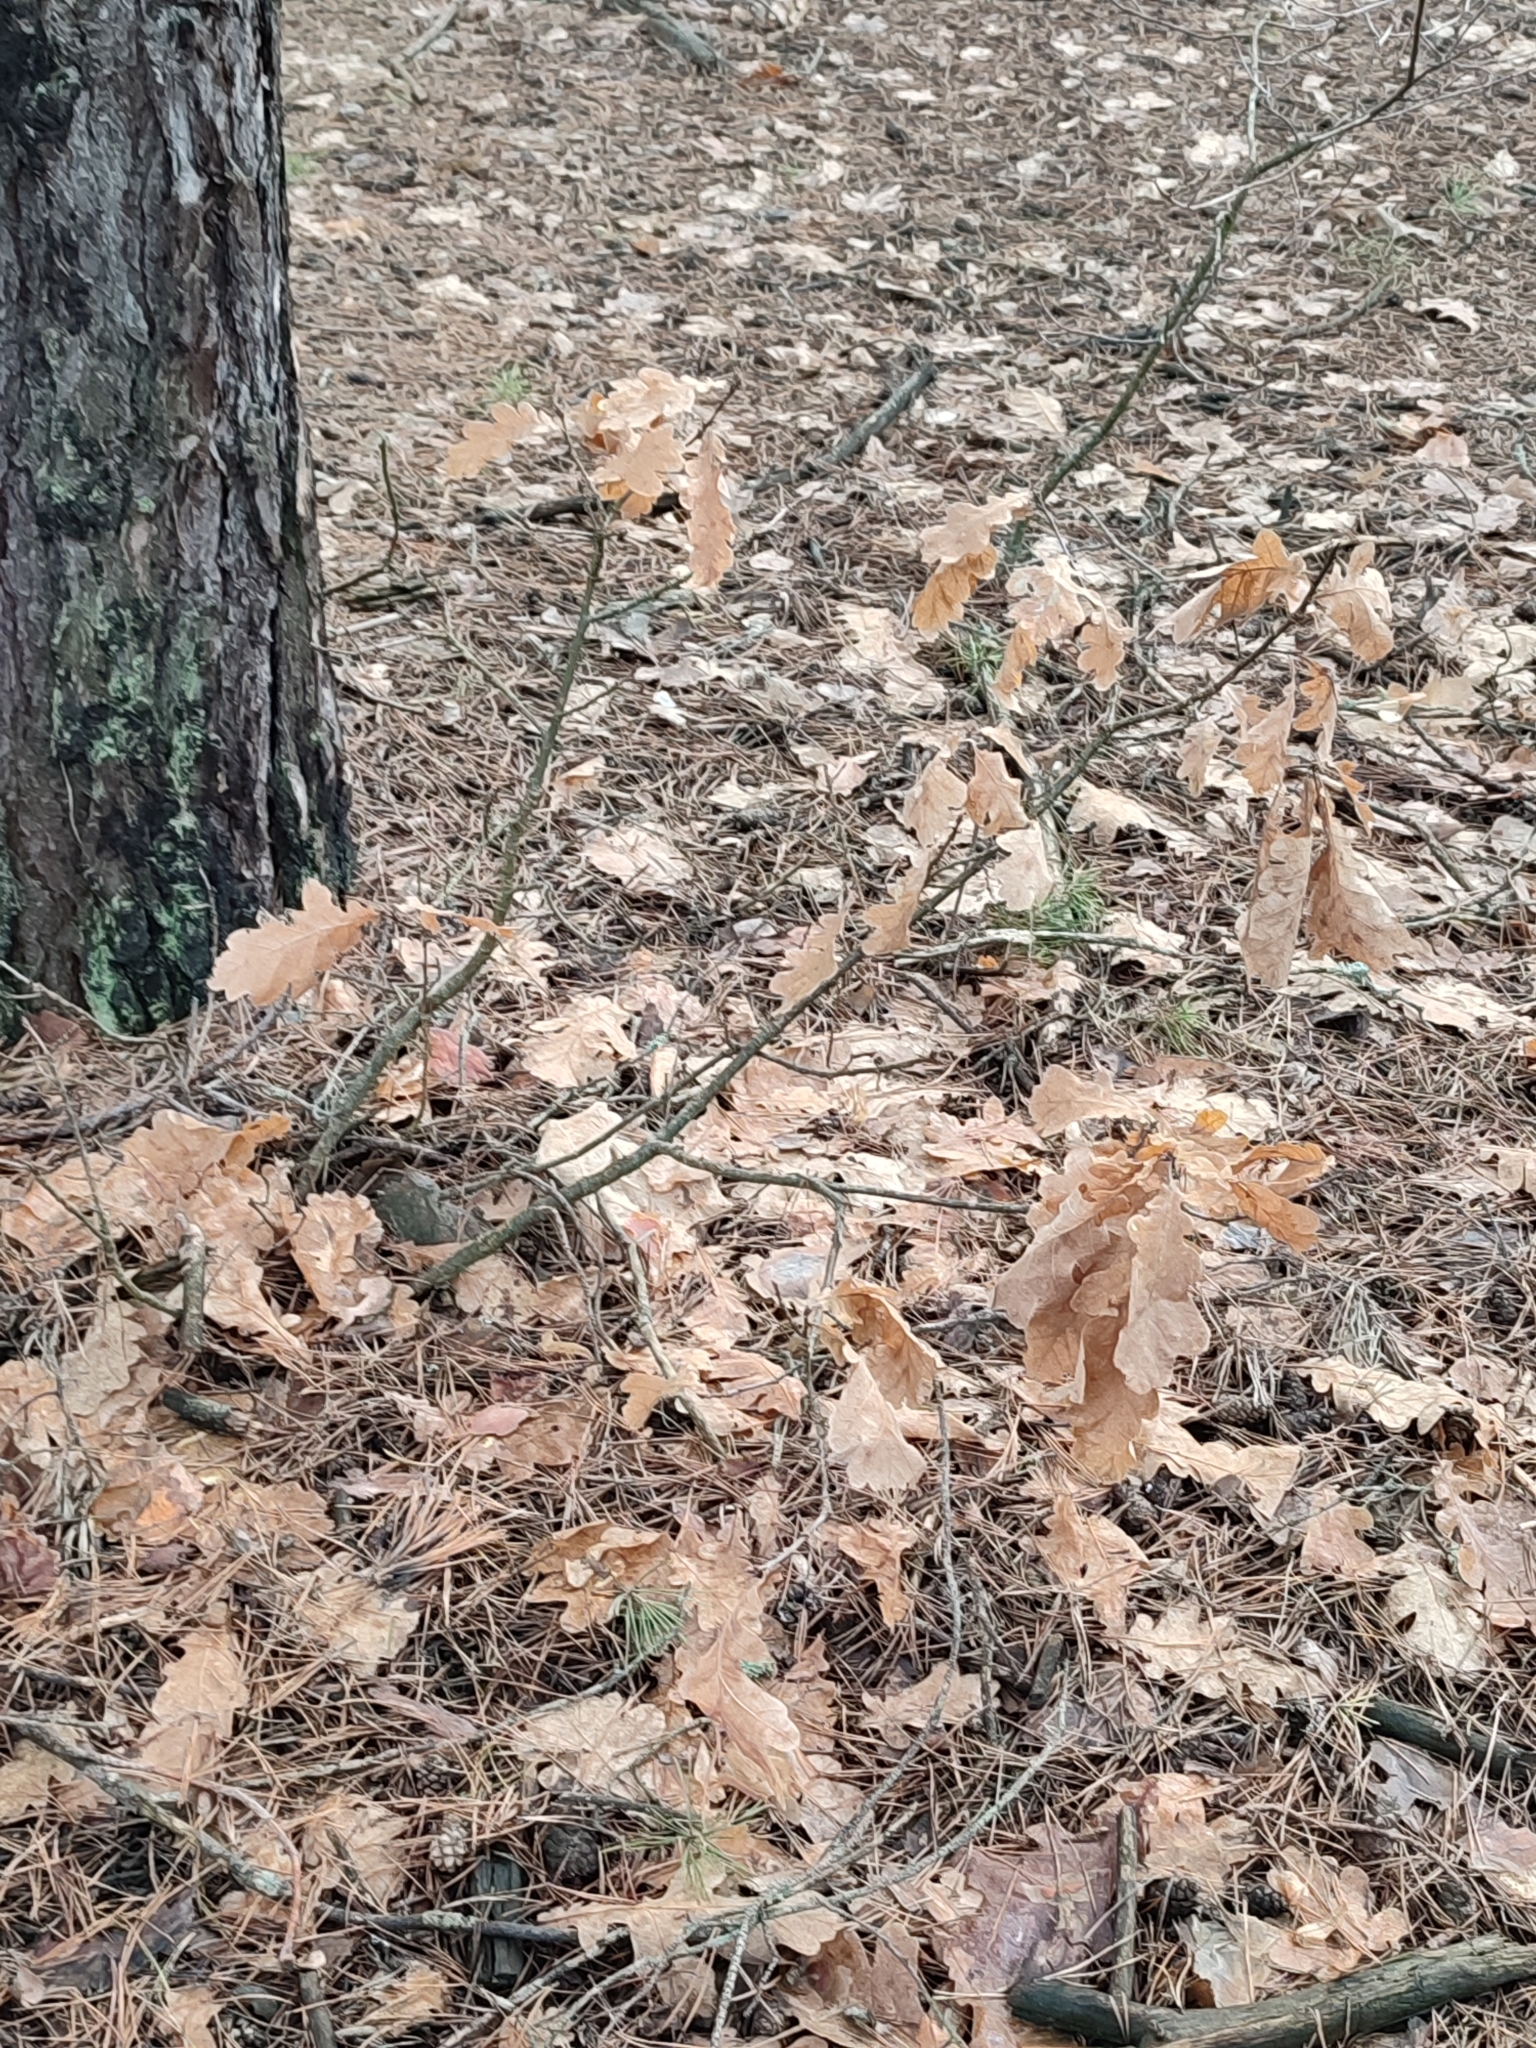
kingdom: Plantae
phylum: Tracheophyta
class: Magnoliopsida
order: Fagales
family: Fagaceae
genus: Quercus
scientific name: Quercus robur
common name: Pedunculate oak
